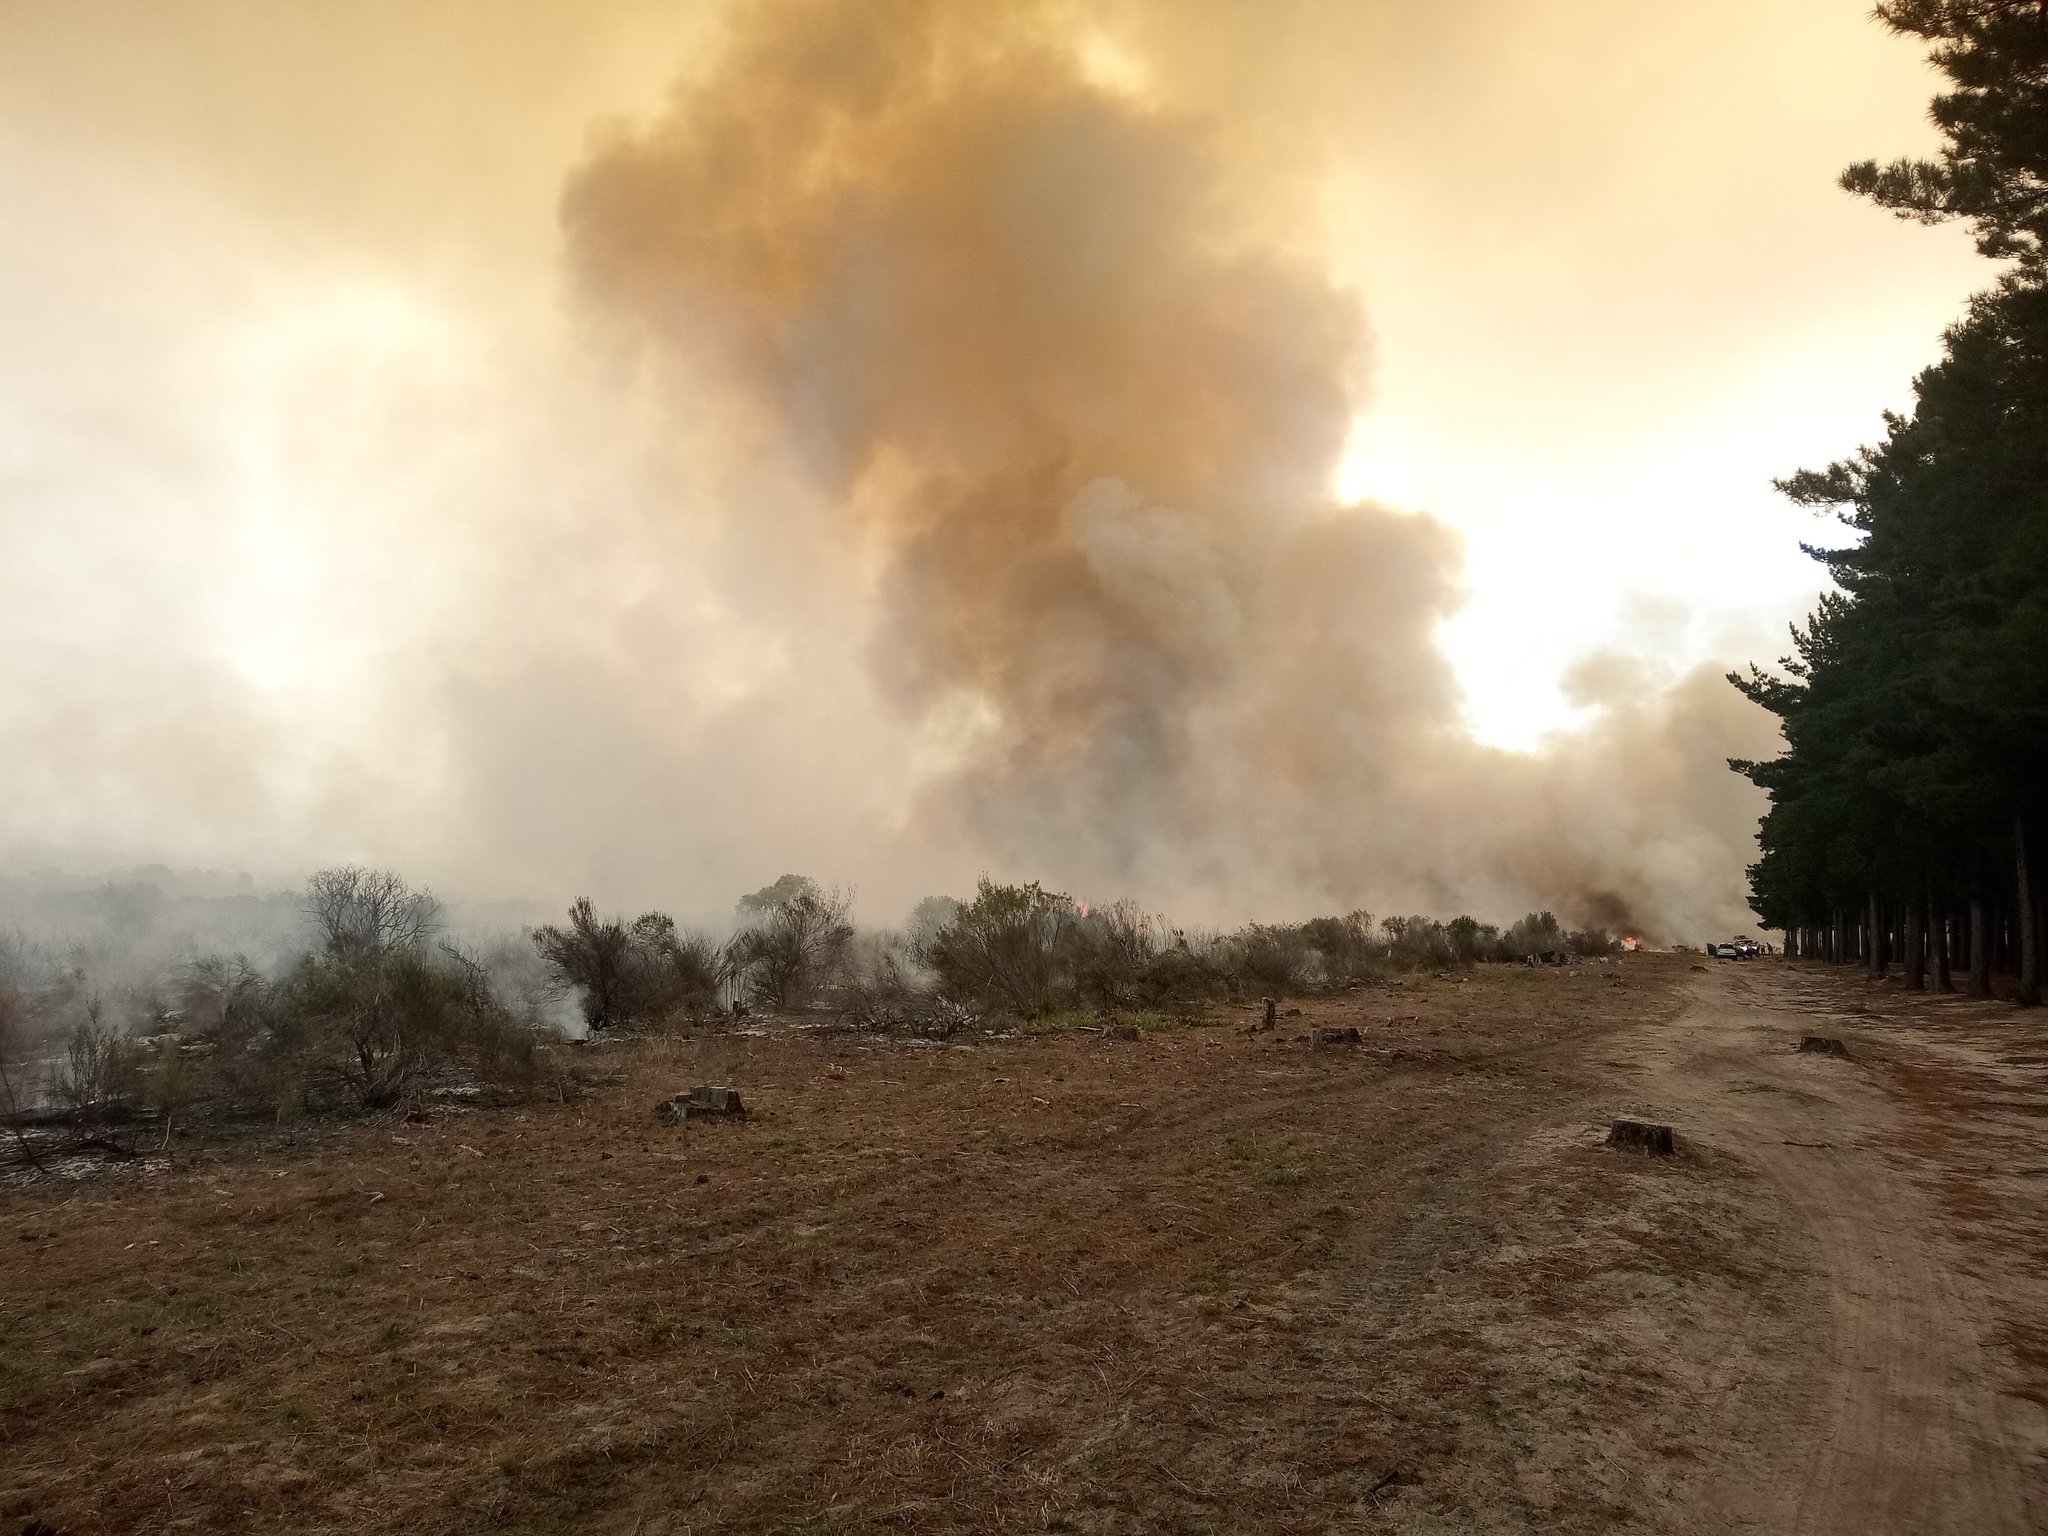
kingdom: Plantae
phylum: Tracheophyta
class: Magnoliopsida
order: Malvales
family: Thymelaeaceae
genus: Passerina
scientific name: Passerina corymbosa
